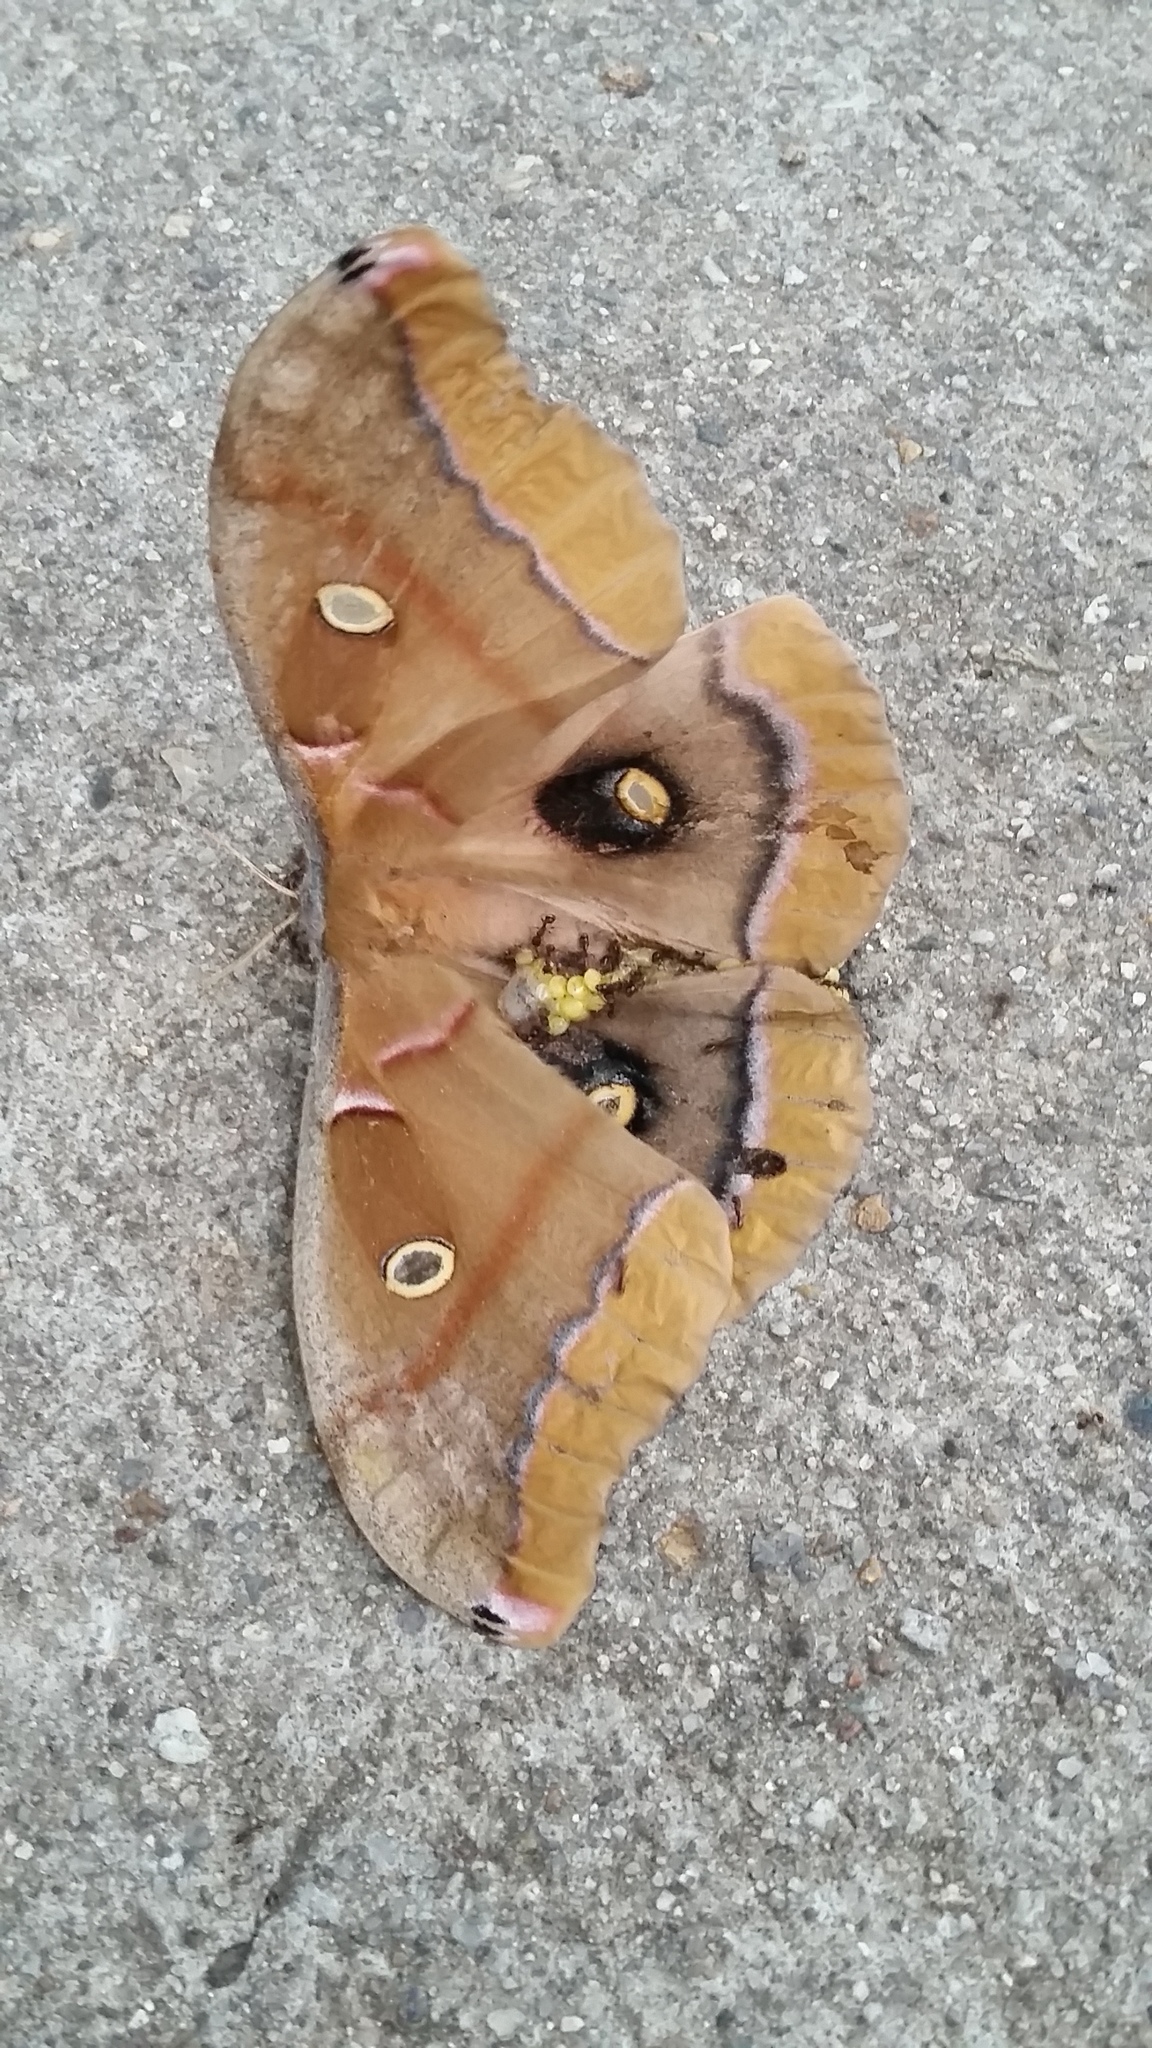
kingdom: Animalia
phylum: Arthropoda
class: Insecta
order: Lepidoptera
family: Saturniidae
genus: Antheraea
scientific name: Antheraea polyphemus
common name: Polyphemus moth
